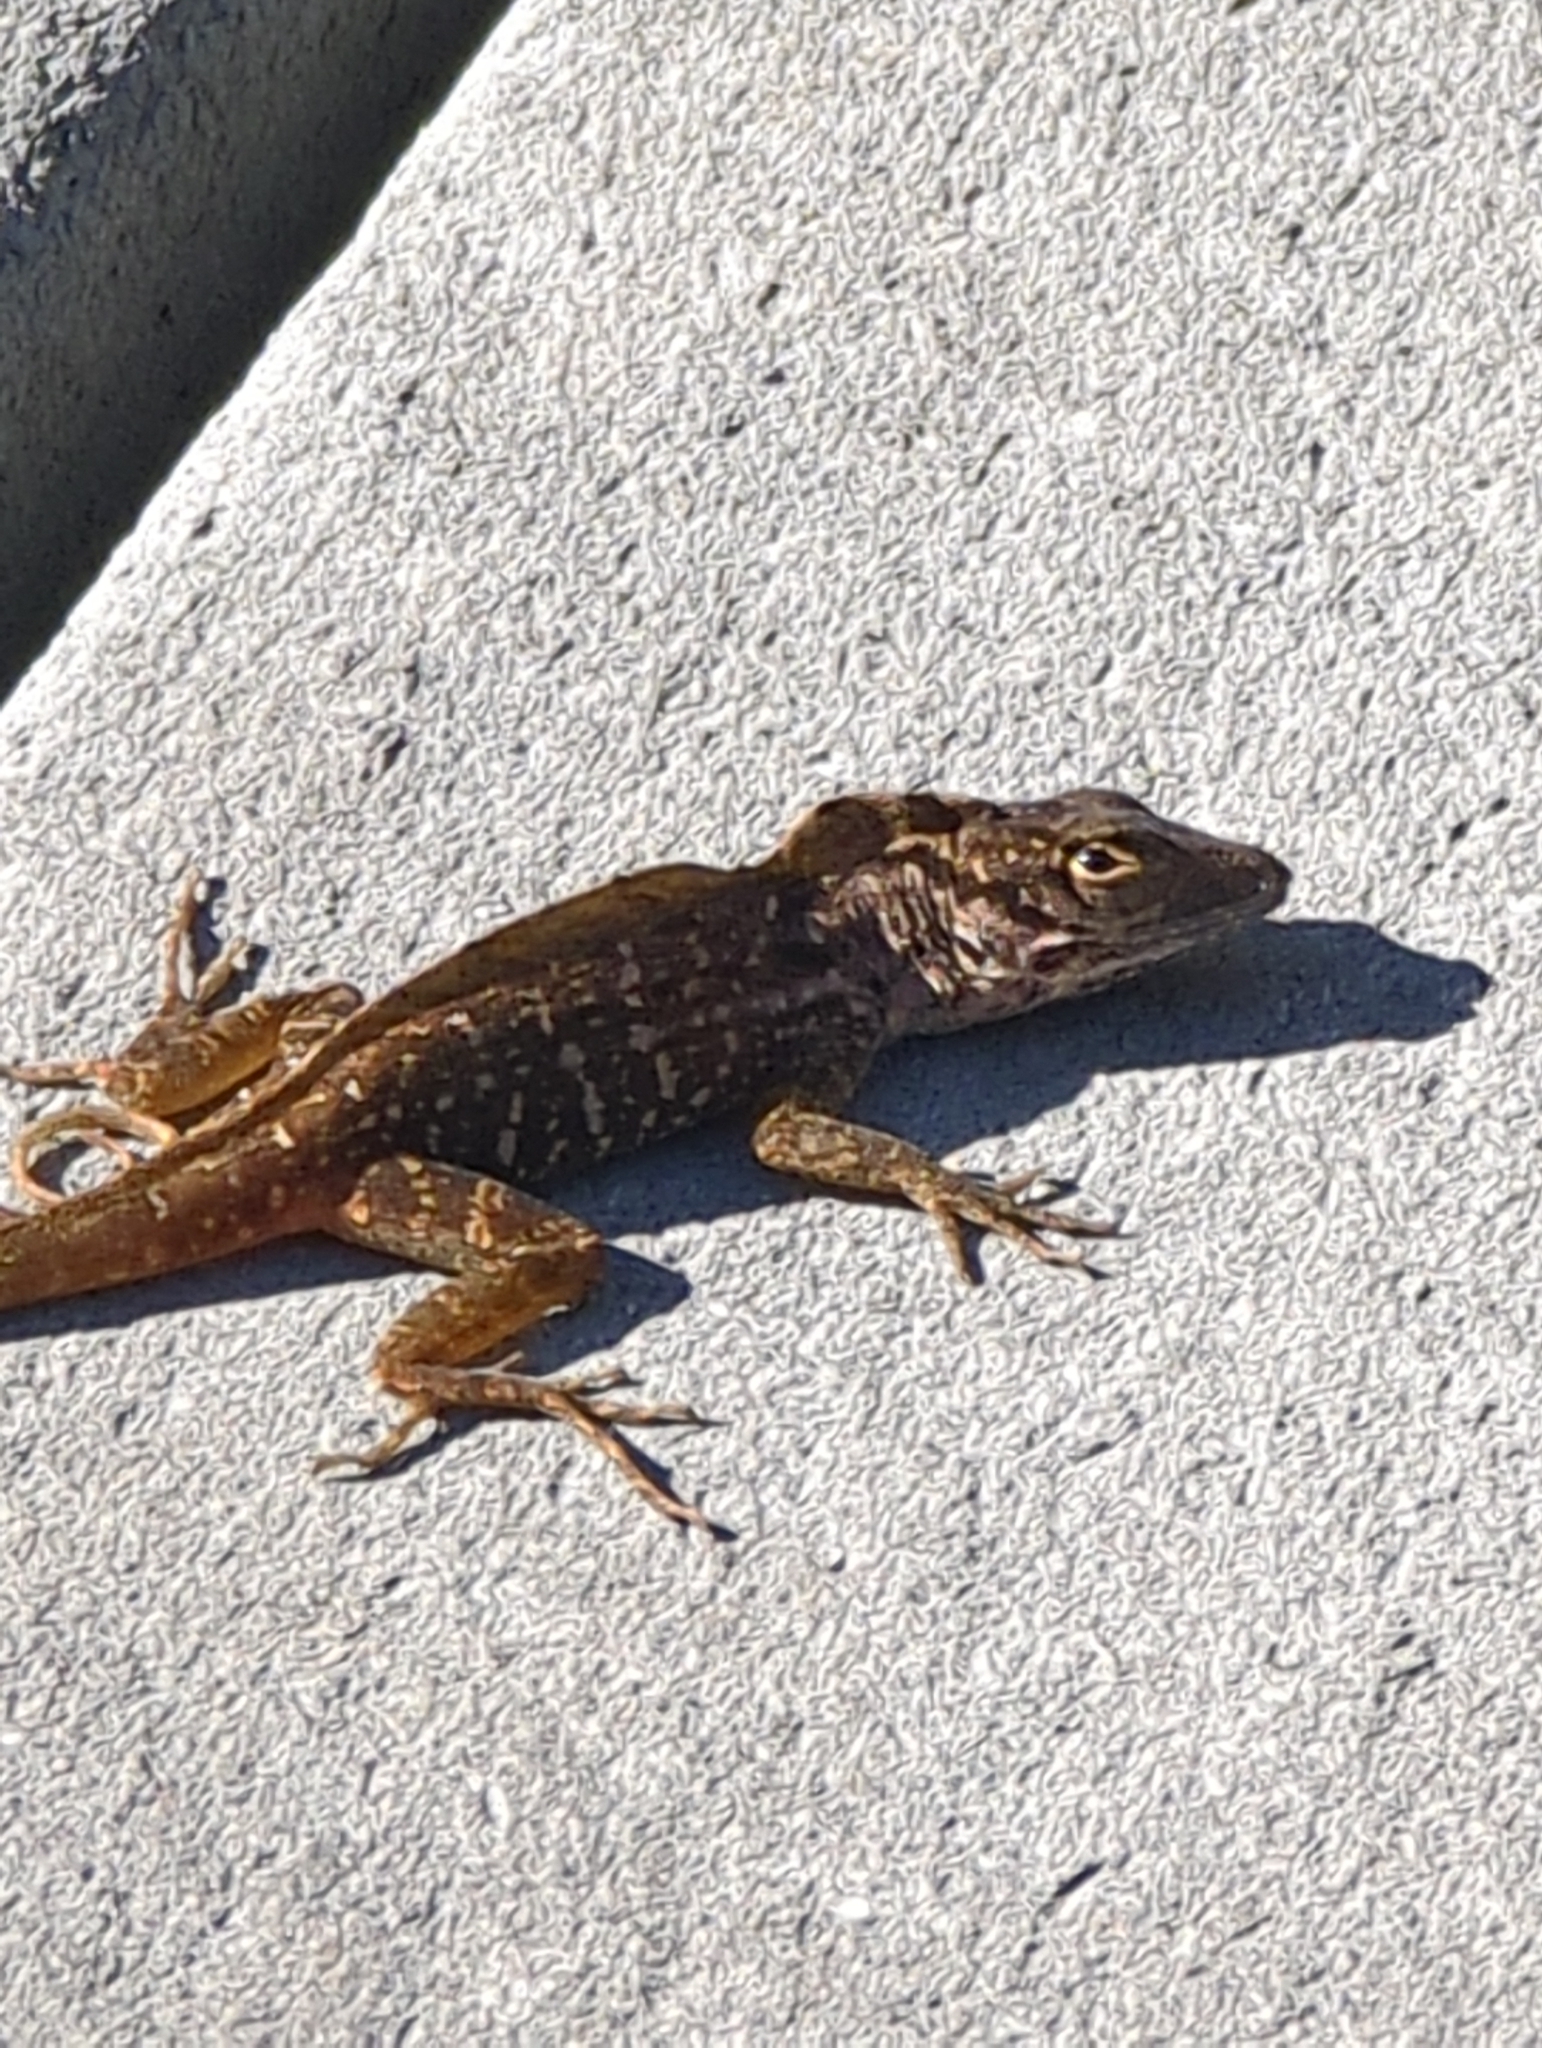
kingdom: Animalia
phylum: Chordata
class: Squamata
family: Dactyloidae
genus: Anolis
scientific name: Anolis sagrei
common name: Brown anole
